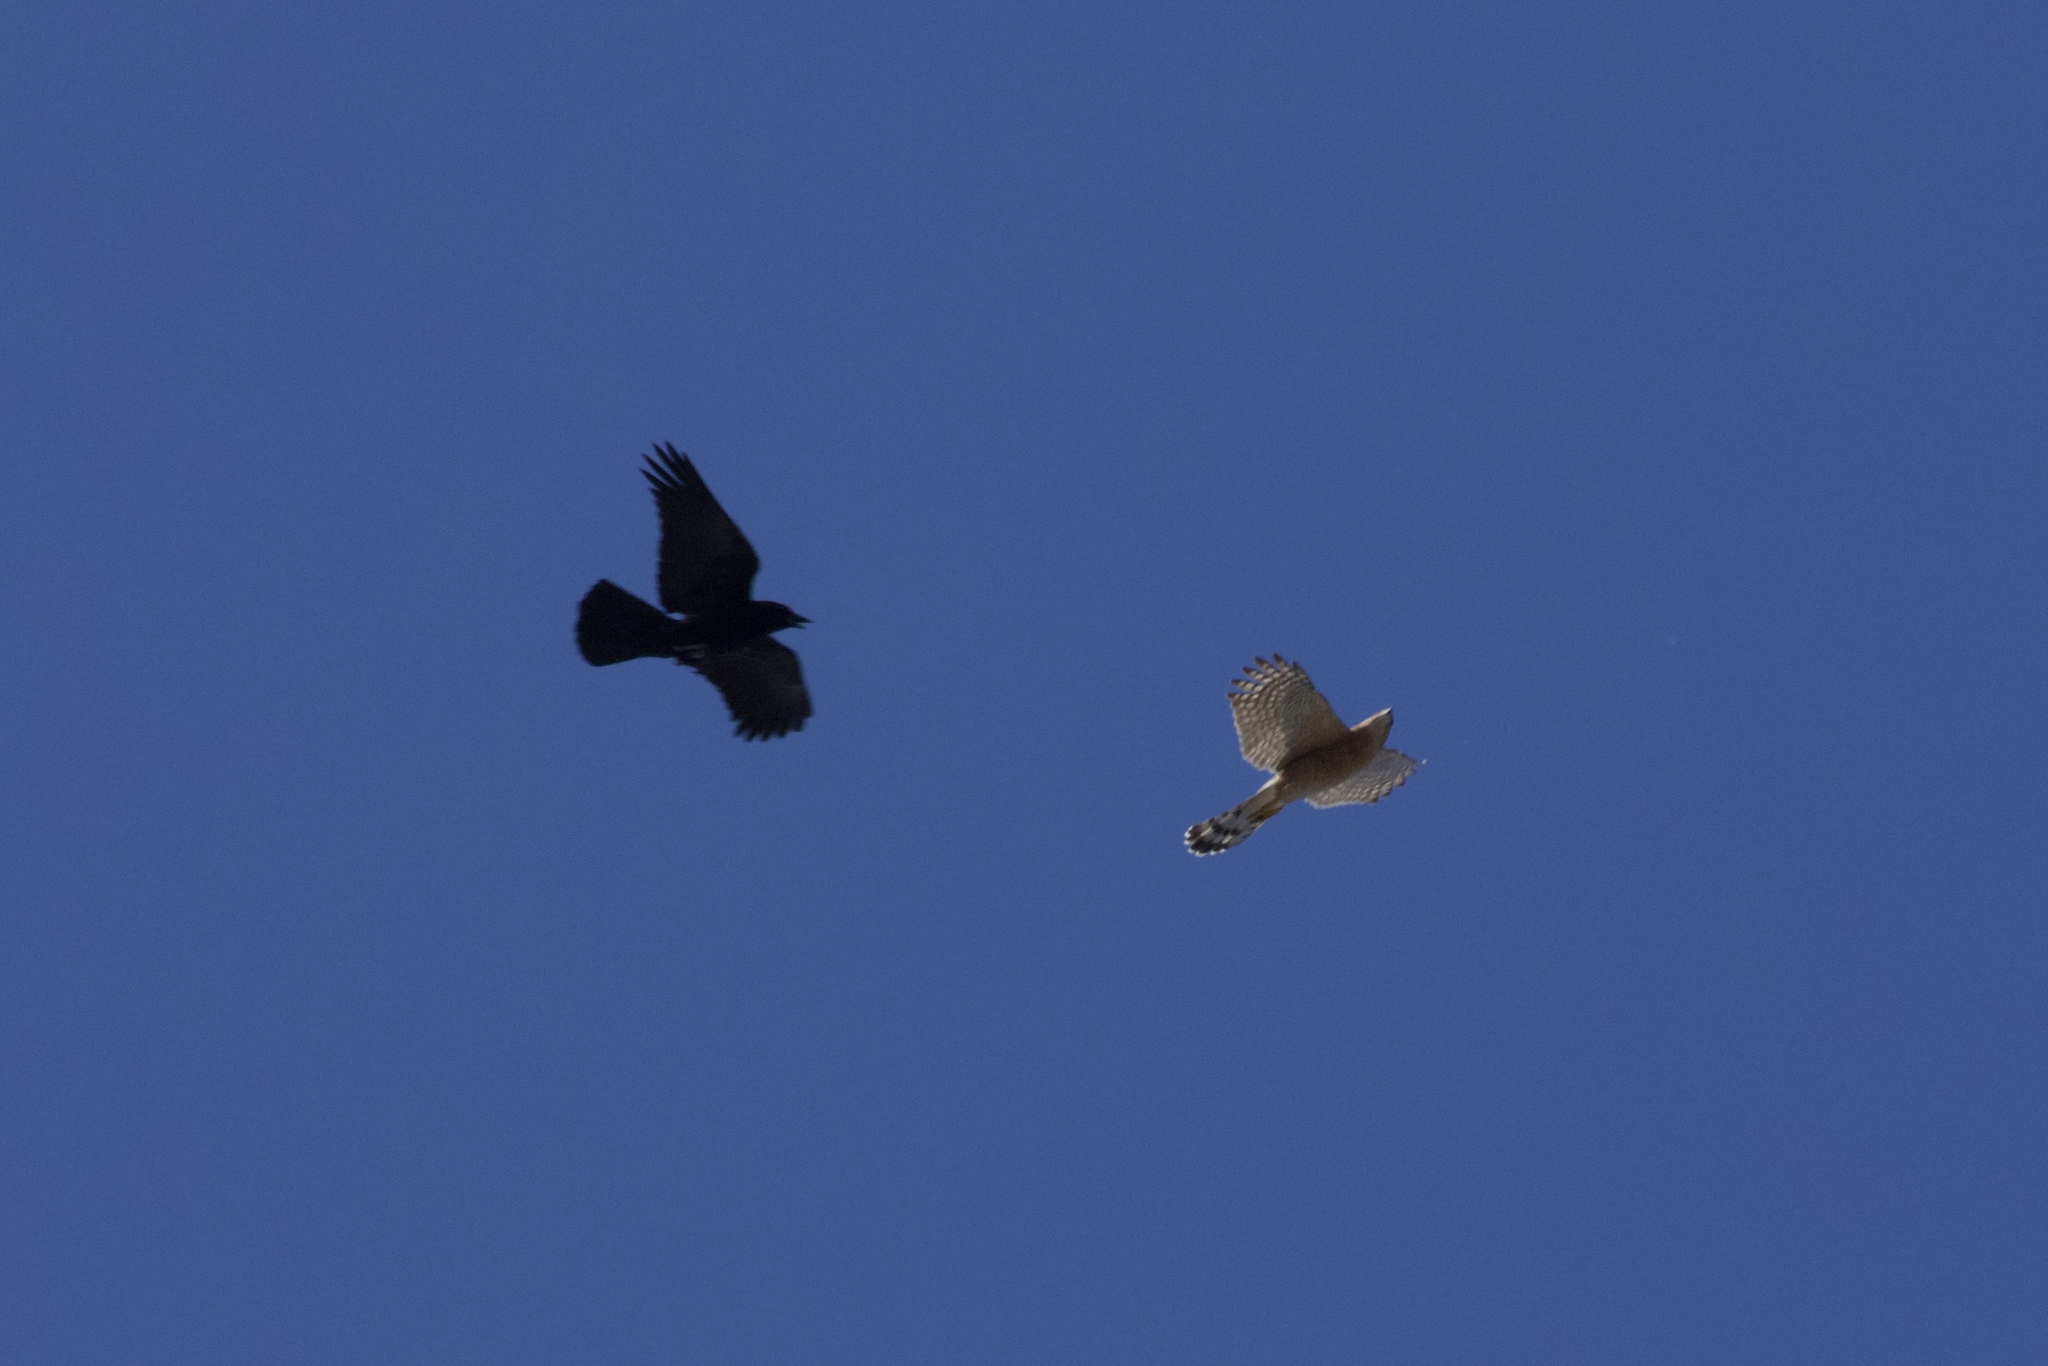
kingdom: Animalia
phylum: Chordata
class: Aves
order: Passeriformes
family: Corvidae
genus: Corvus
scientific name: Corvus brachyrhynchos
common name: American crow
